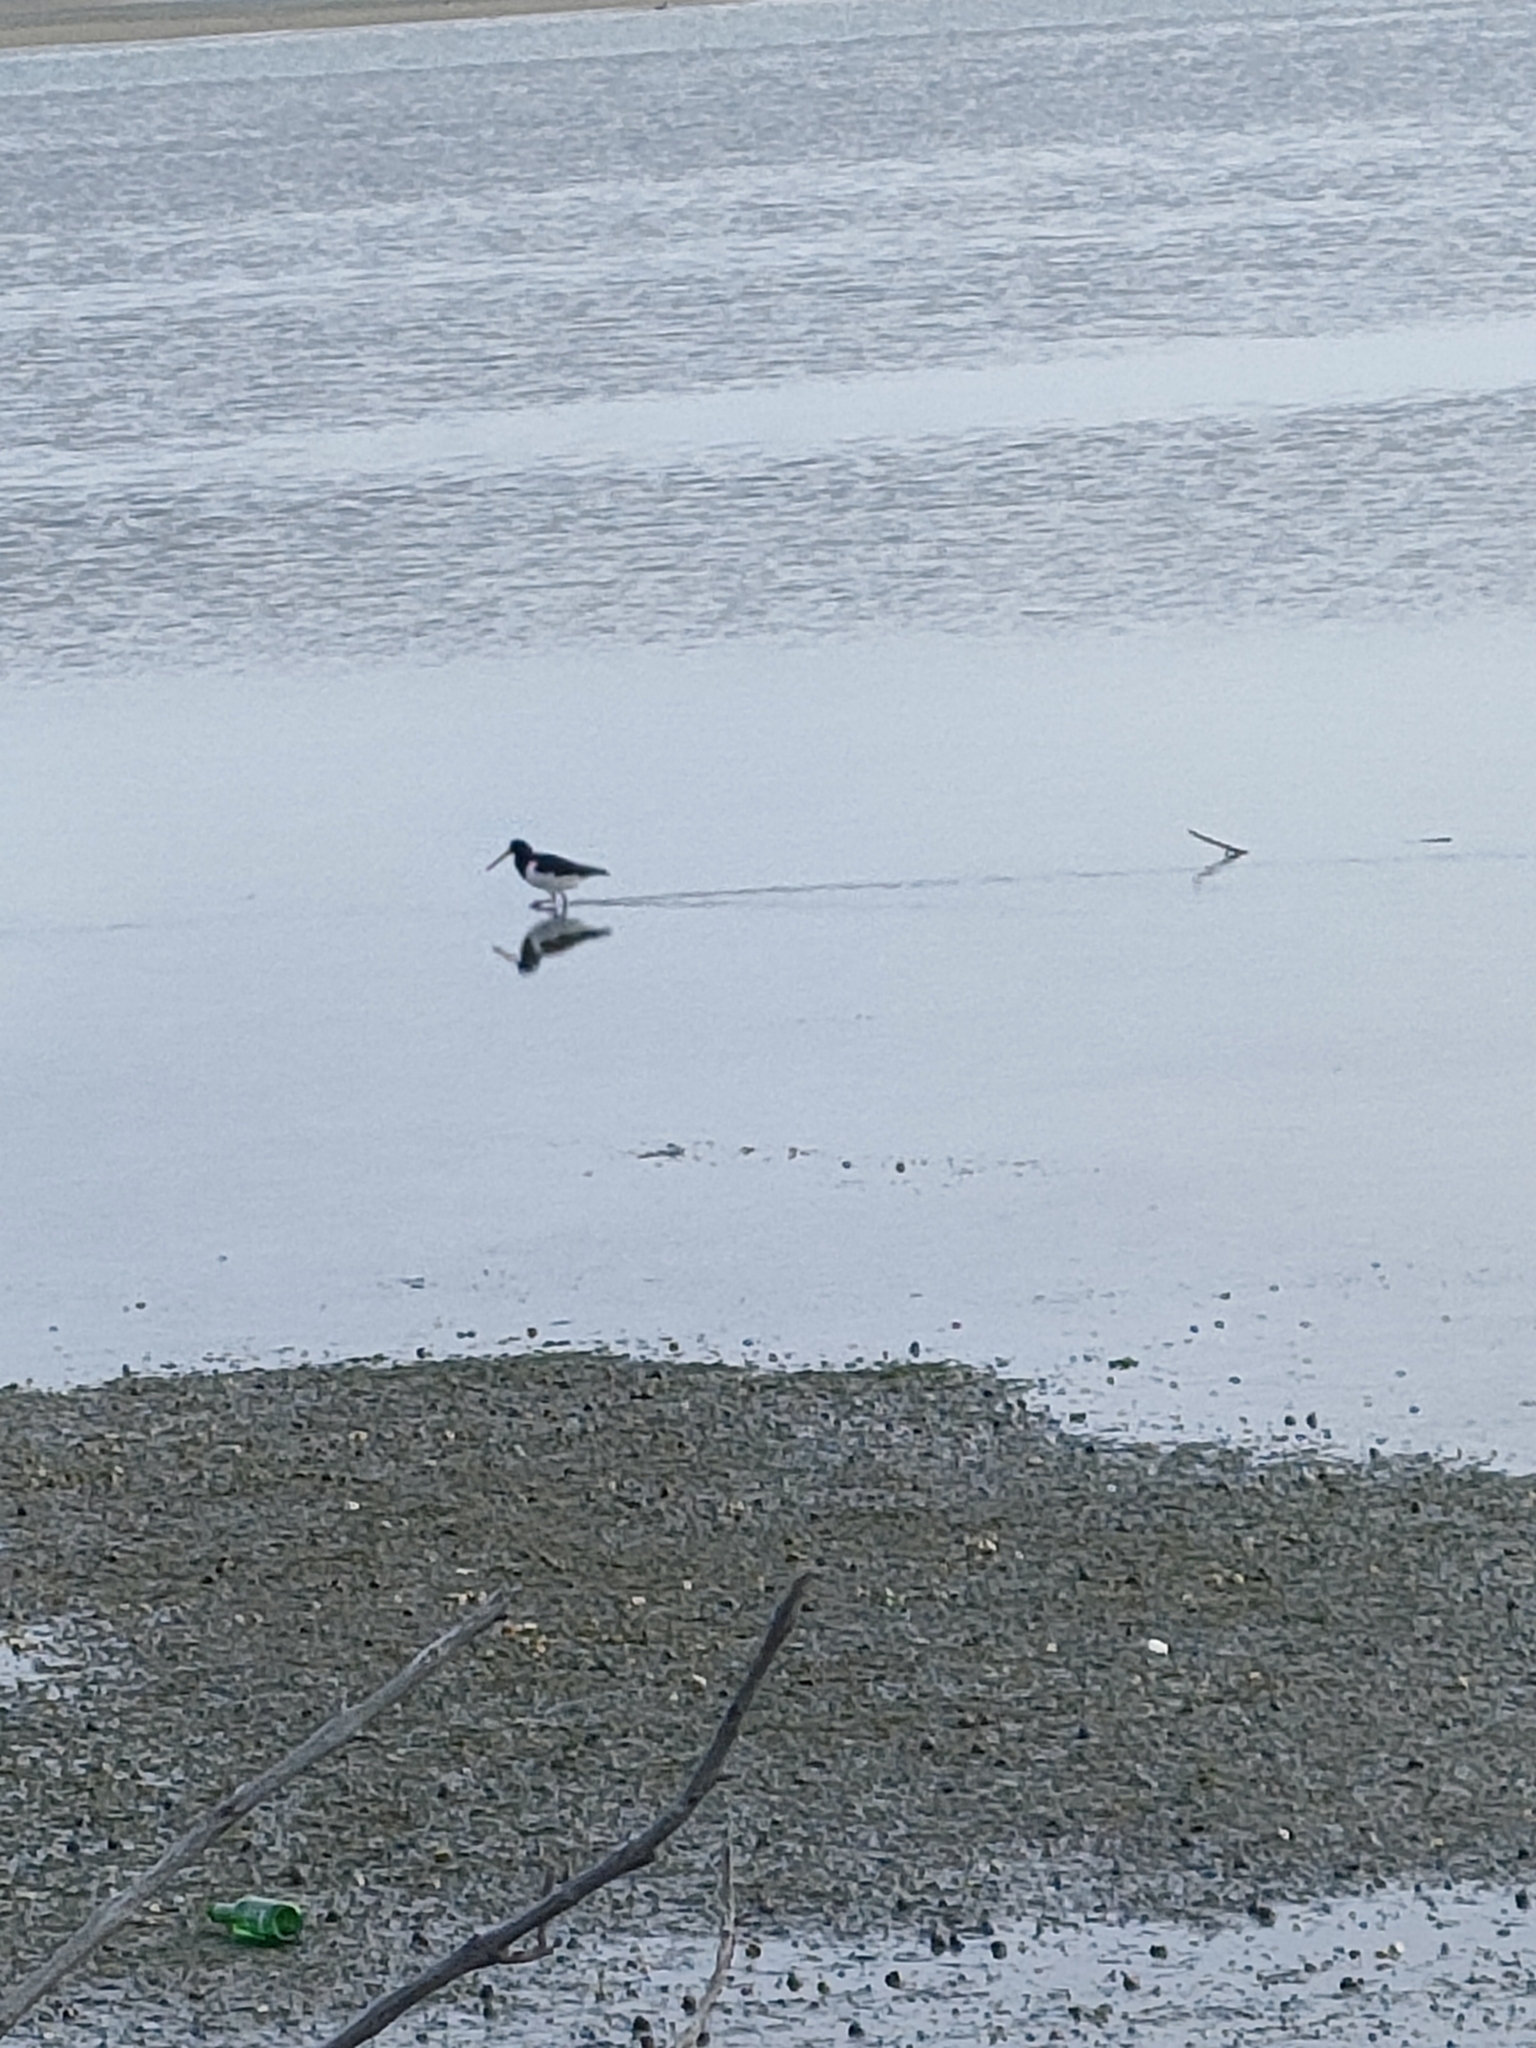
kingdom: Animalia
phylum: Chordata
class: Aves
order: Charadriiformes
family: Haematopodidae
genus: Haematopus
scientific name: Haematopus finschi
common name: South island oystercatcher
